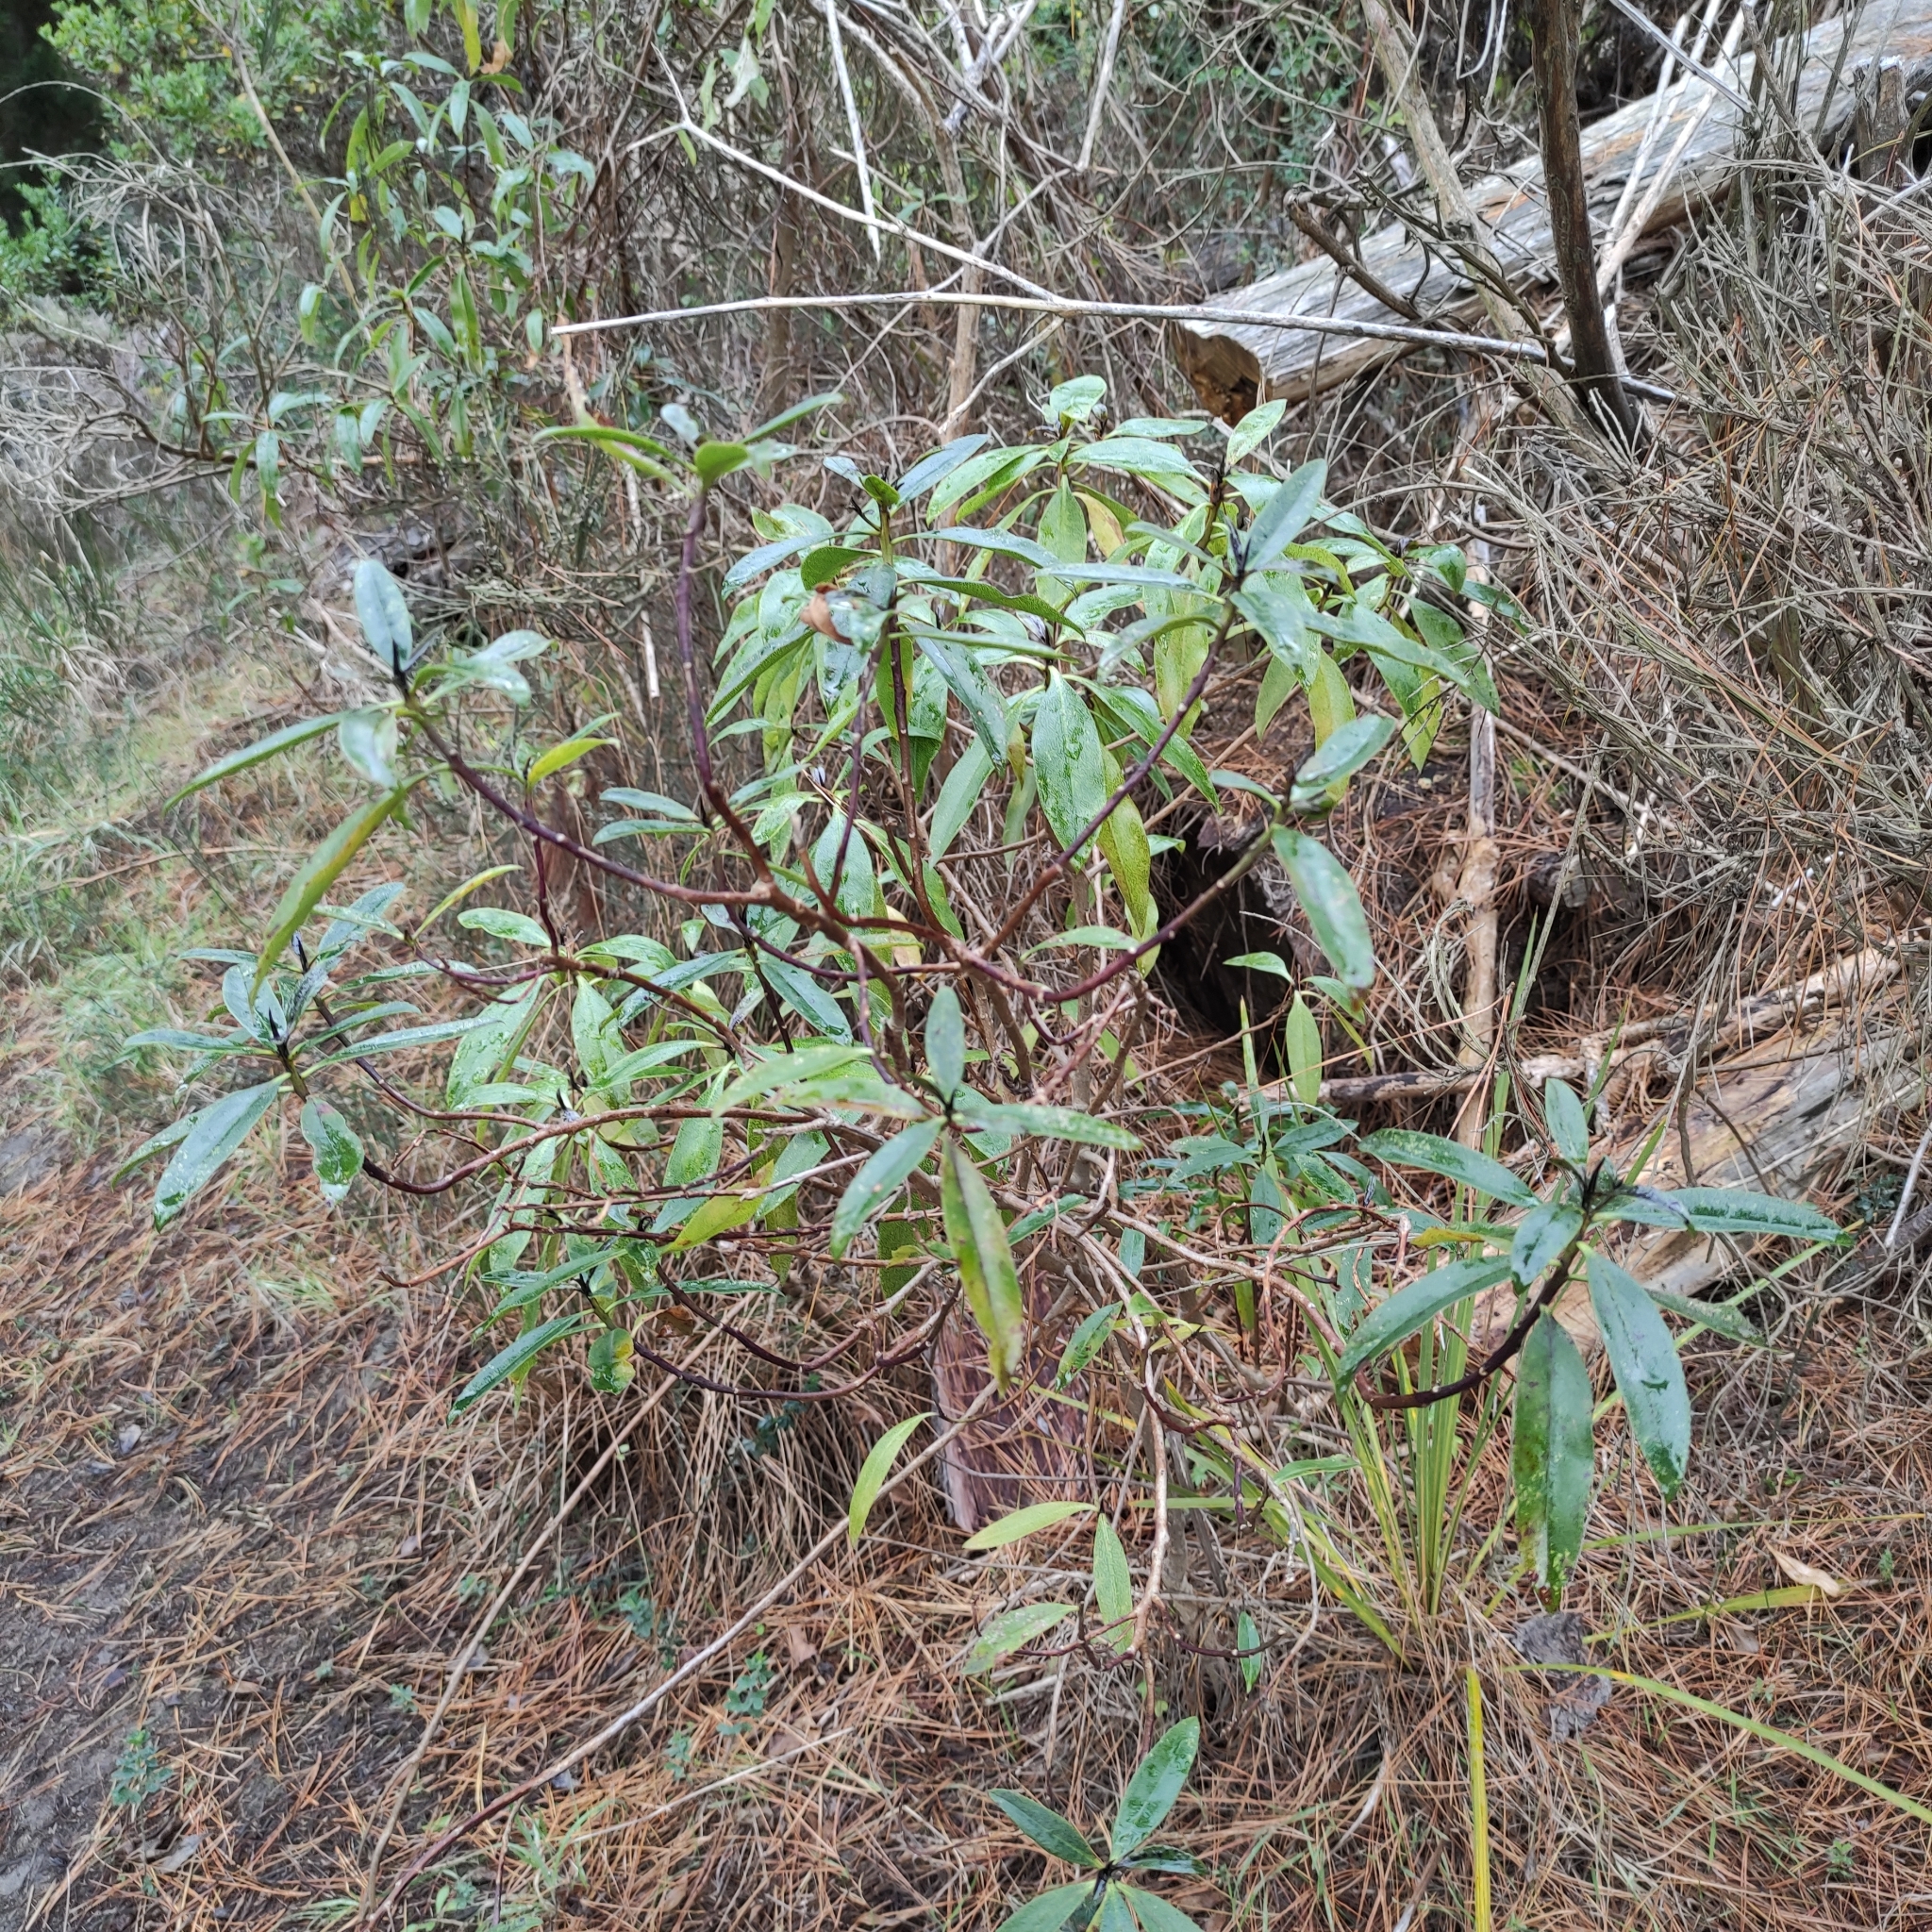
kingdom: Plantae
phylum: Tracheophyta
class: Magnoliopsida
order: Lamiales
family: Scrophulariaceae
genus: Myoporum
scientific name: Myoporum laetum
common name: Ngaio tree
